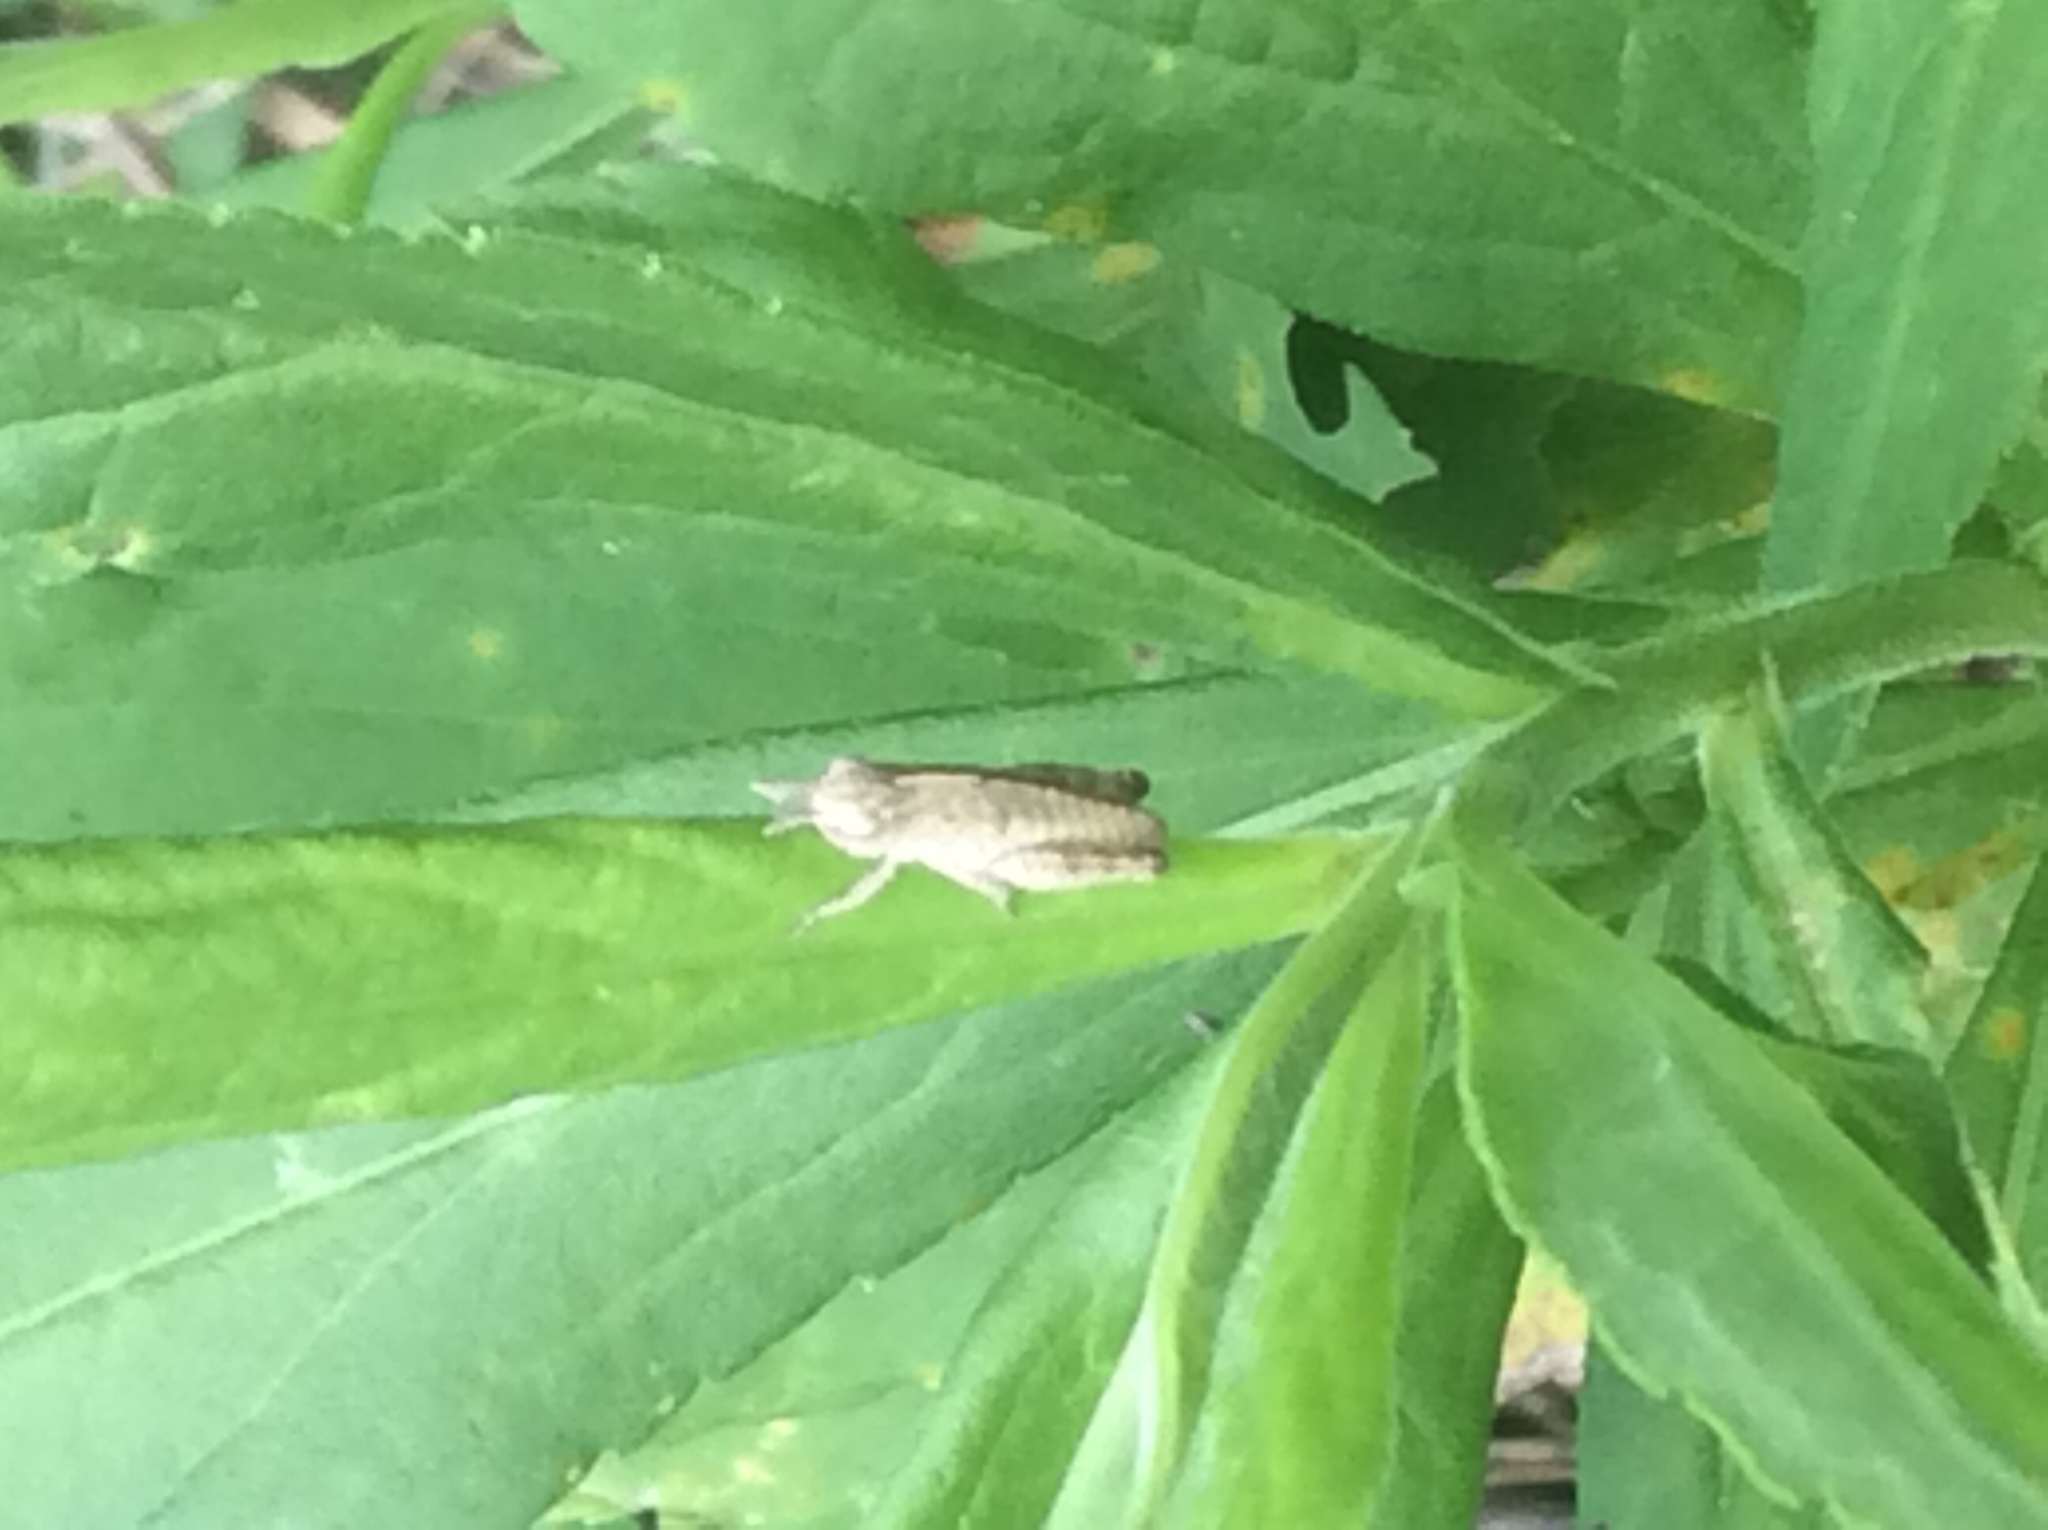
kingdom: Animalia
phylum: Arthropoda
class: Insecta
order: Orthoptera
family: Acrididae
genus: Chortophaga
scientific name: Chortophaga viridifasciata
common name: Green-striped grasshopper
